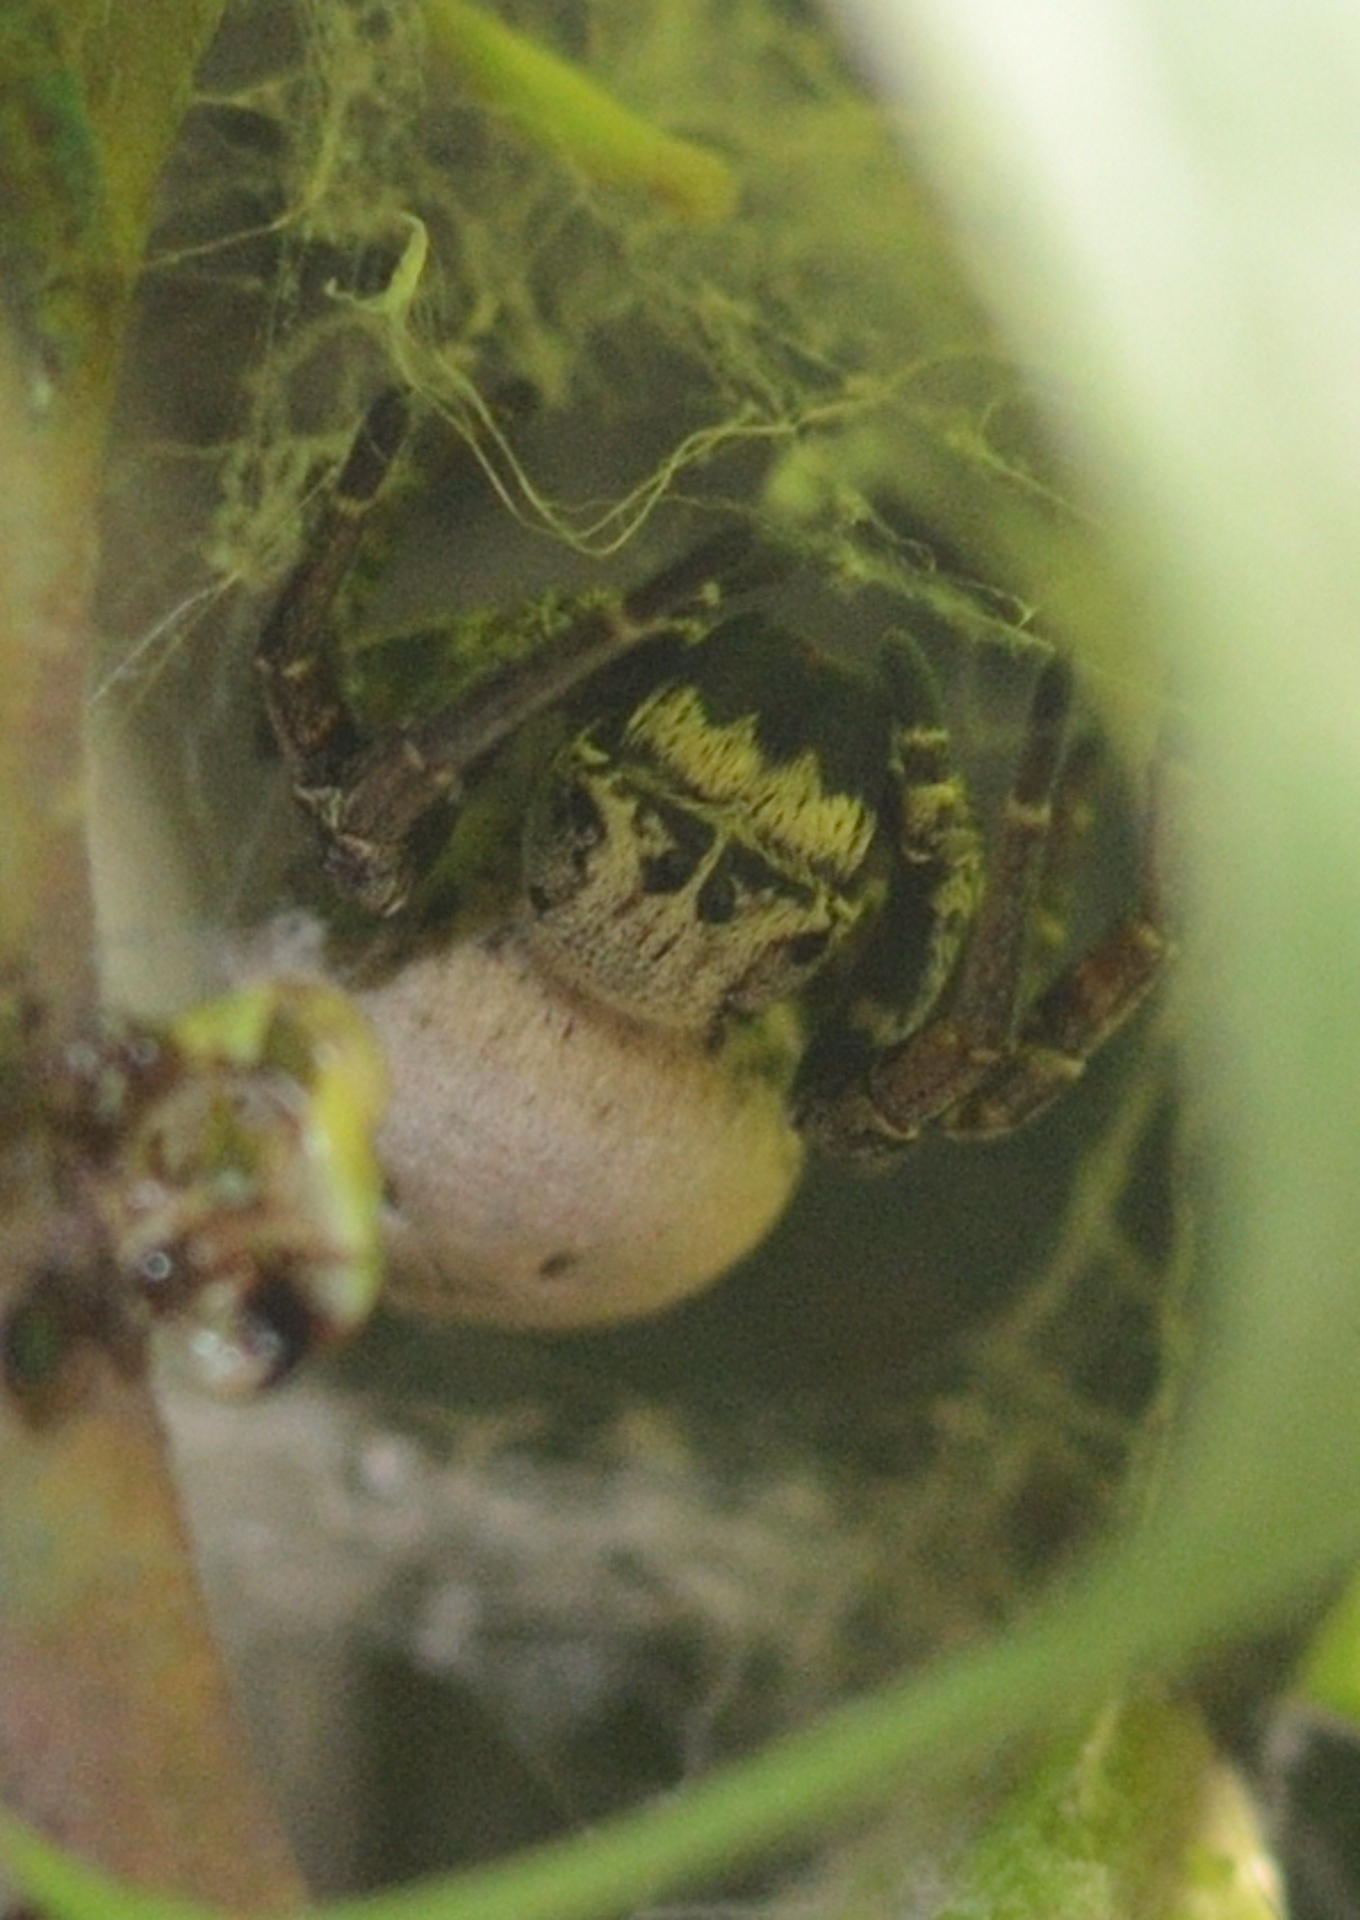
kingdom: Animalia
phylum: Arthropoda
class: Arachnida
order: Araneae
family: Eresidae
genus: Stegodyphus
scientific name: Stegodyphus tibialis
